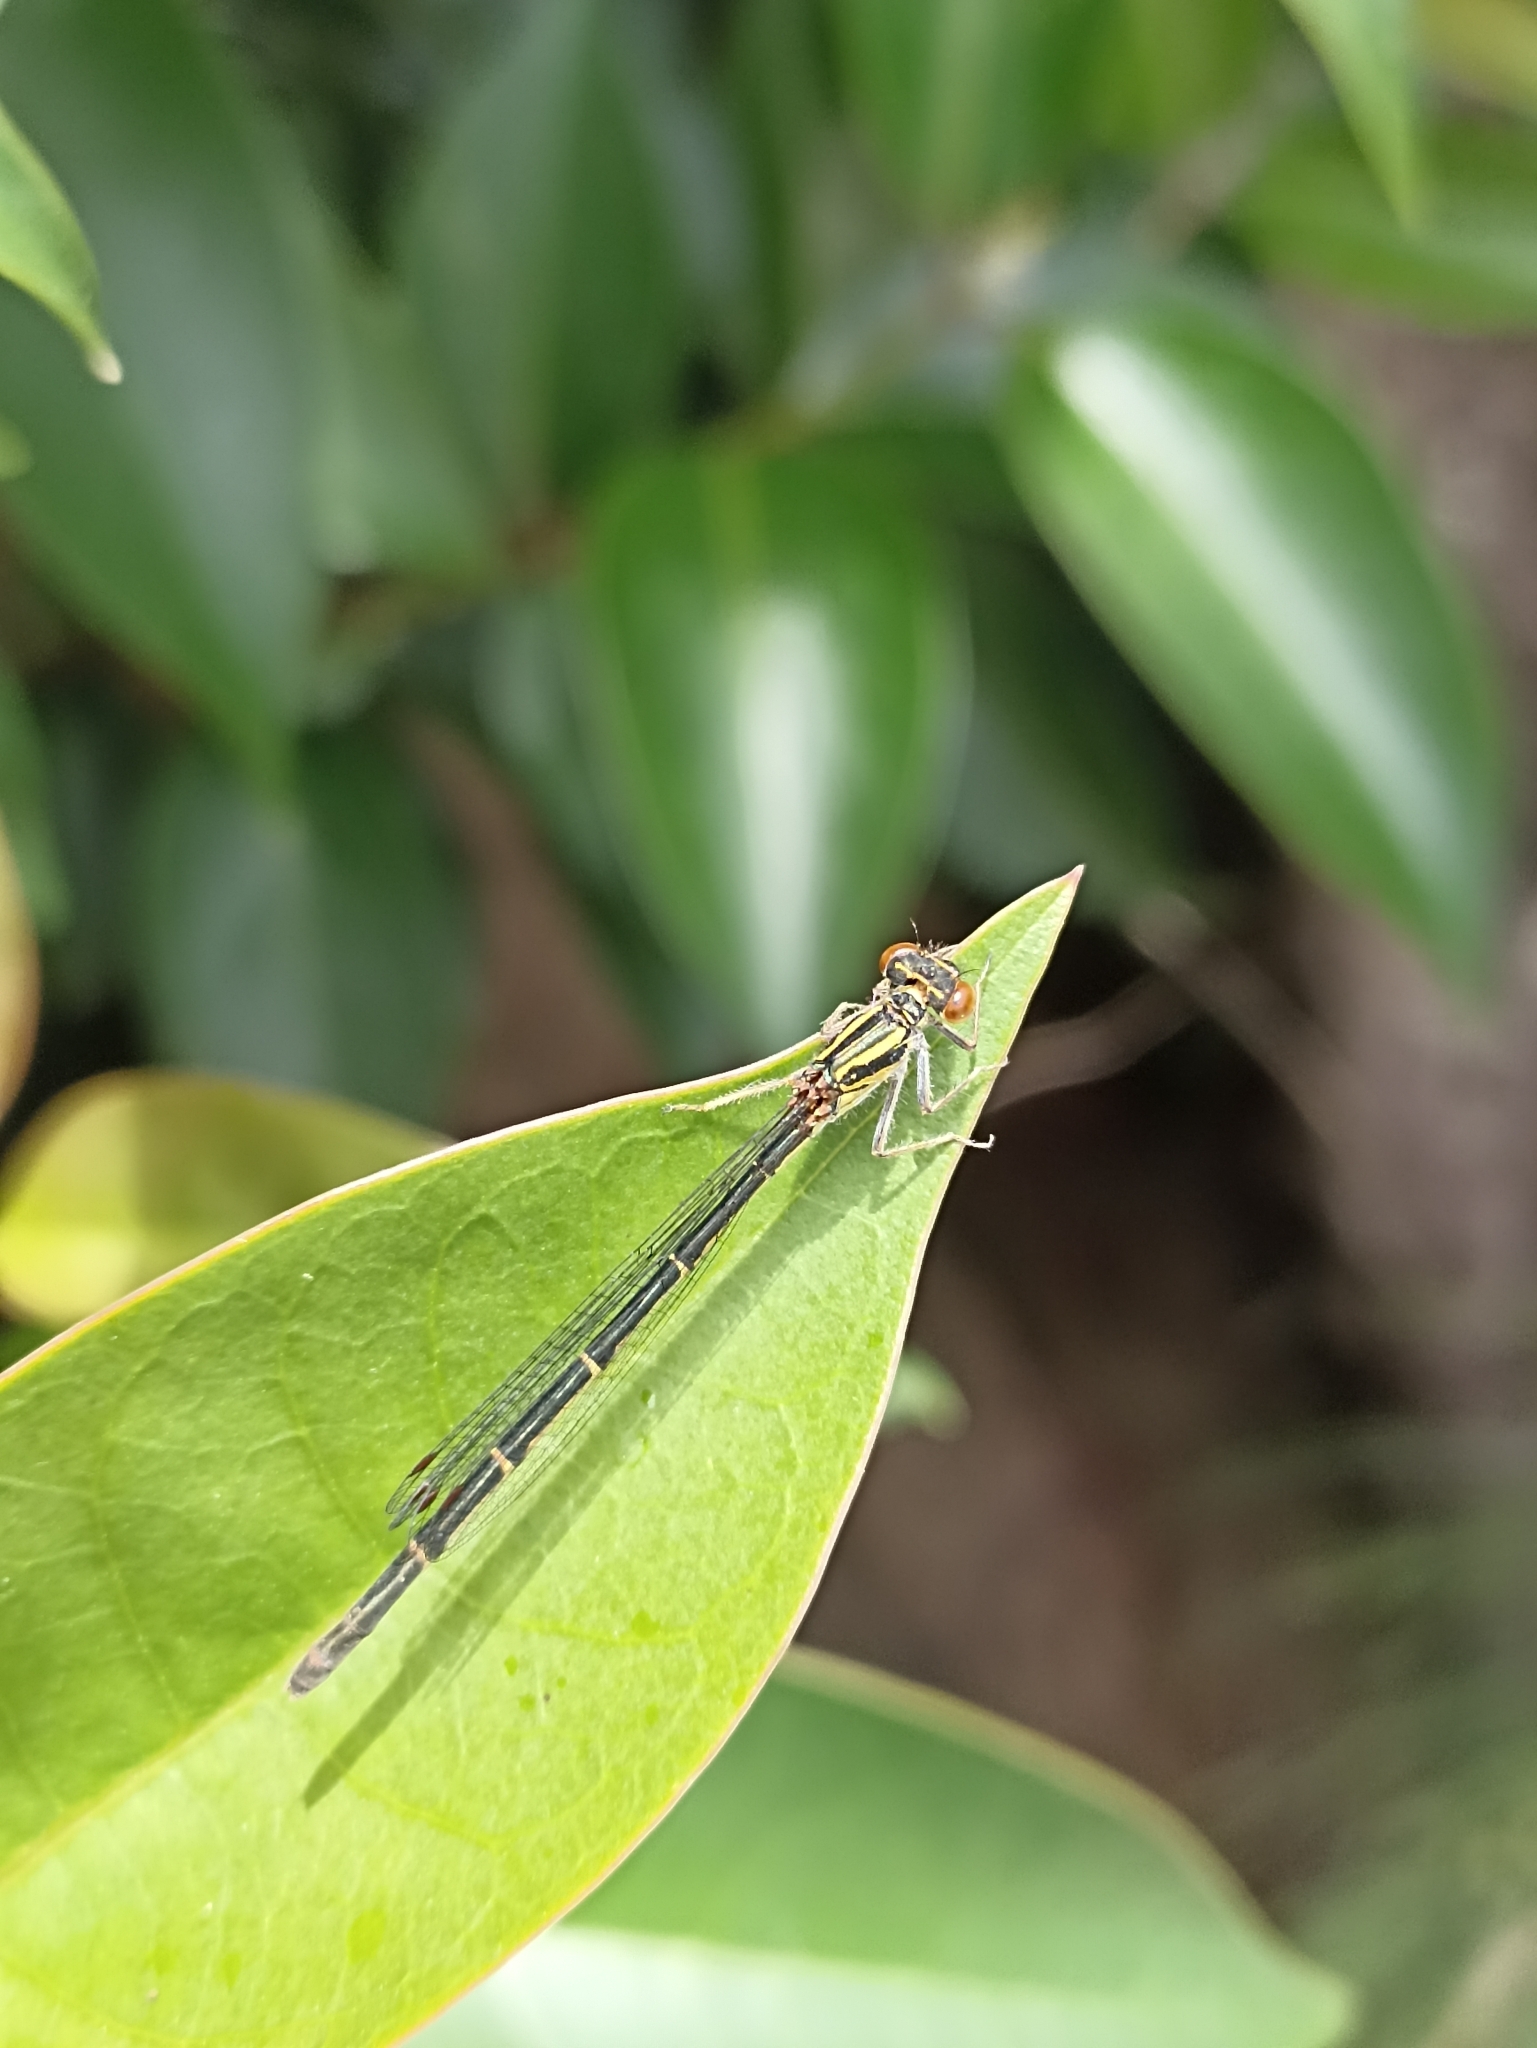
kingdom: Animalia
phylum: Arthropoda
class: Insecta
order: Odonata
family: Coenagrionidae
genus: Xanthocnemis
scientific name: Xanthocnemis zealandica
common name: Common redcoat damselfly
